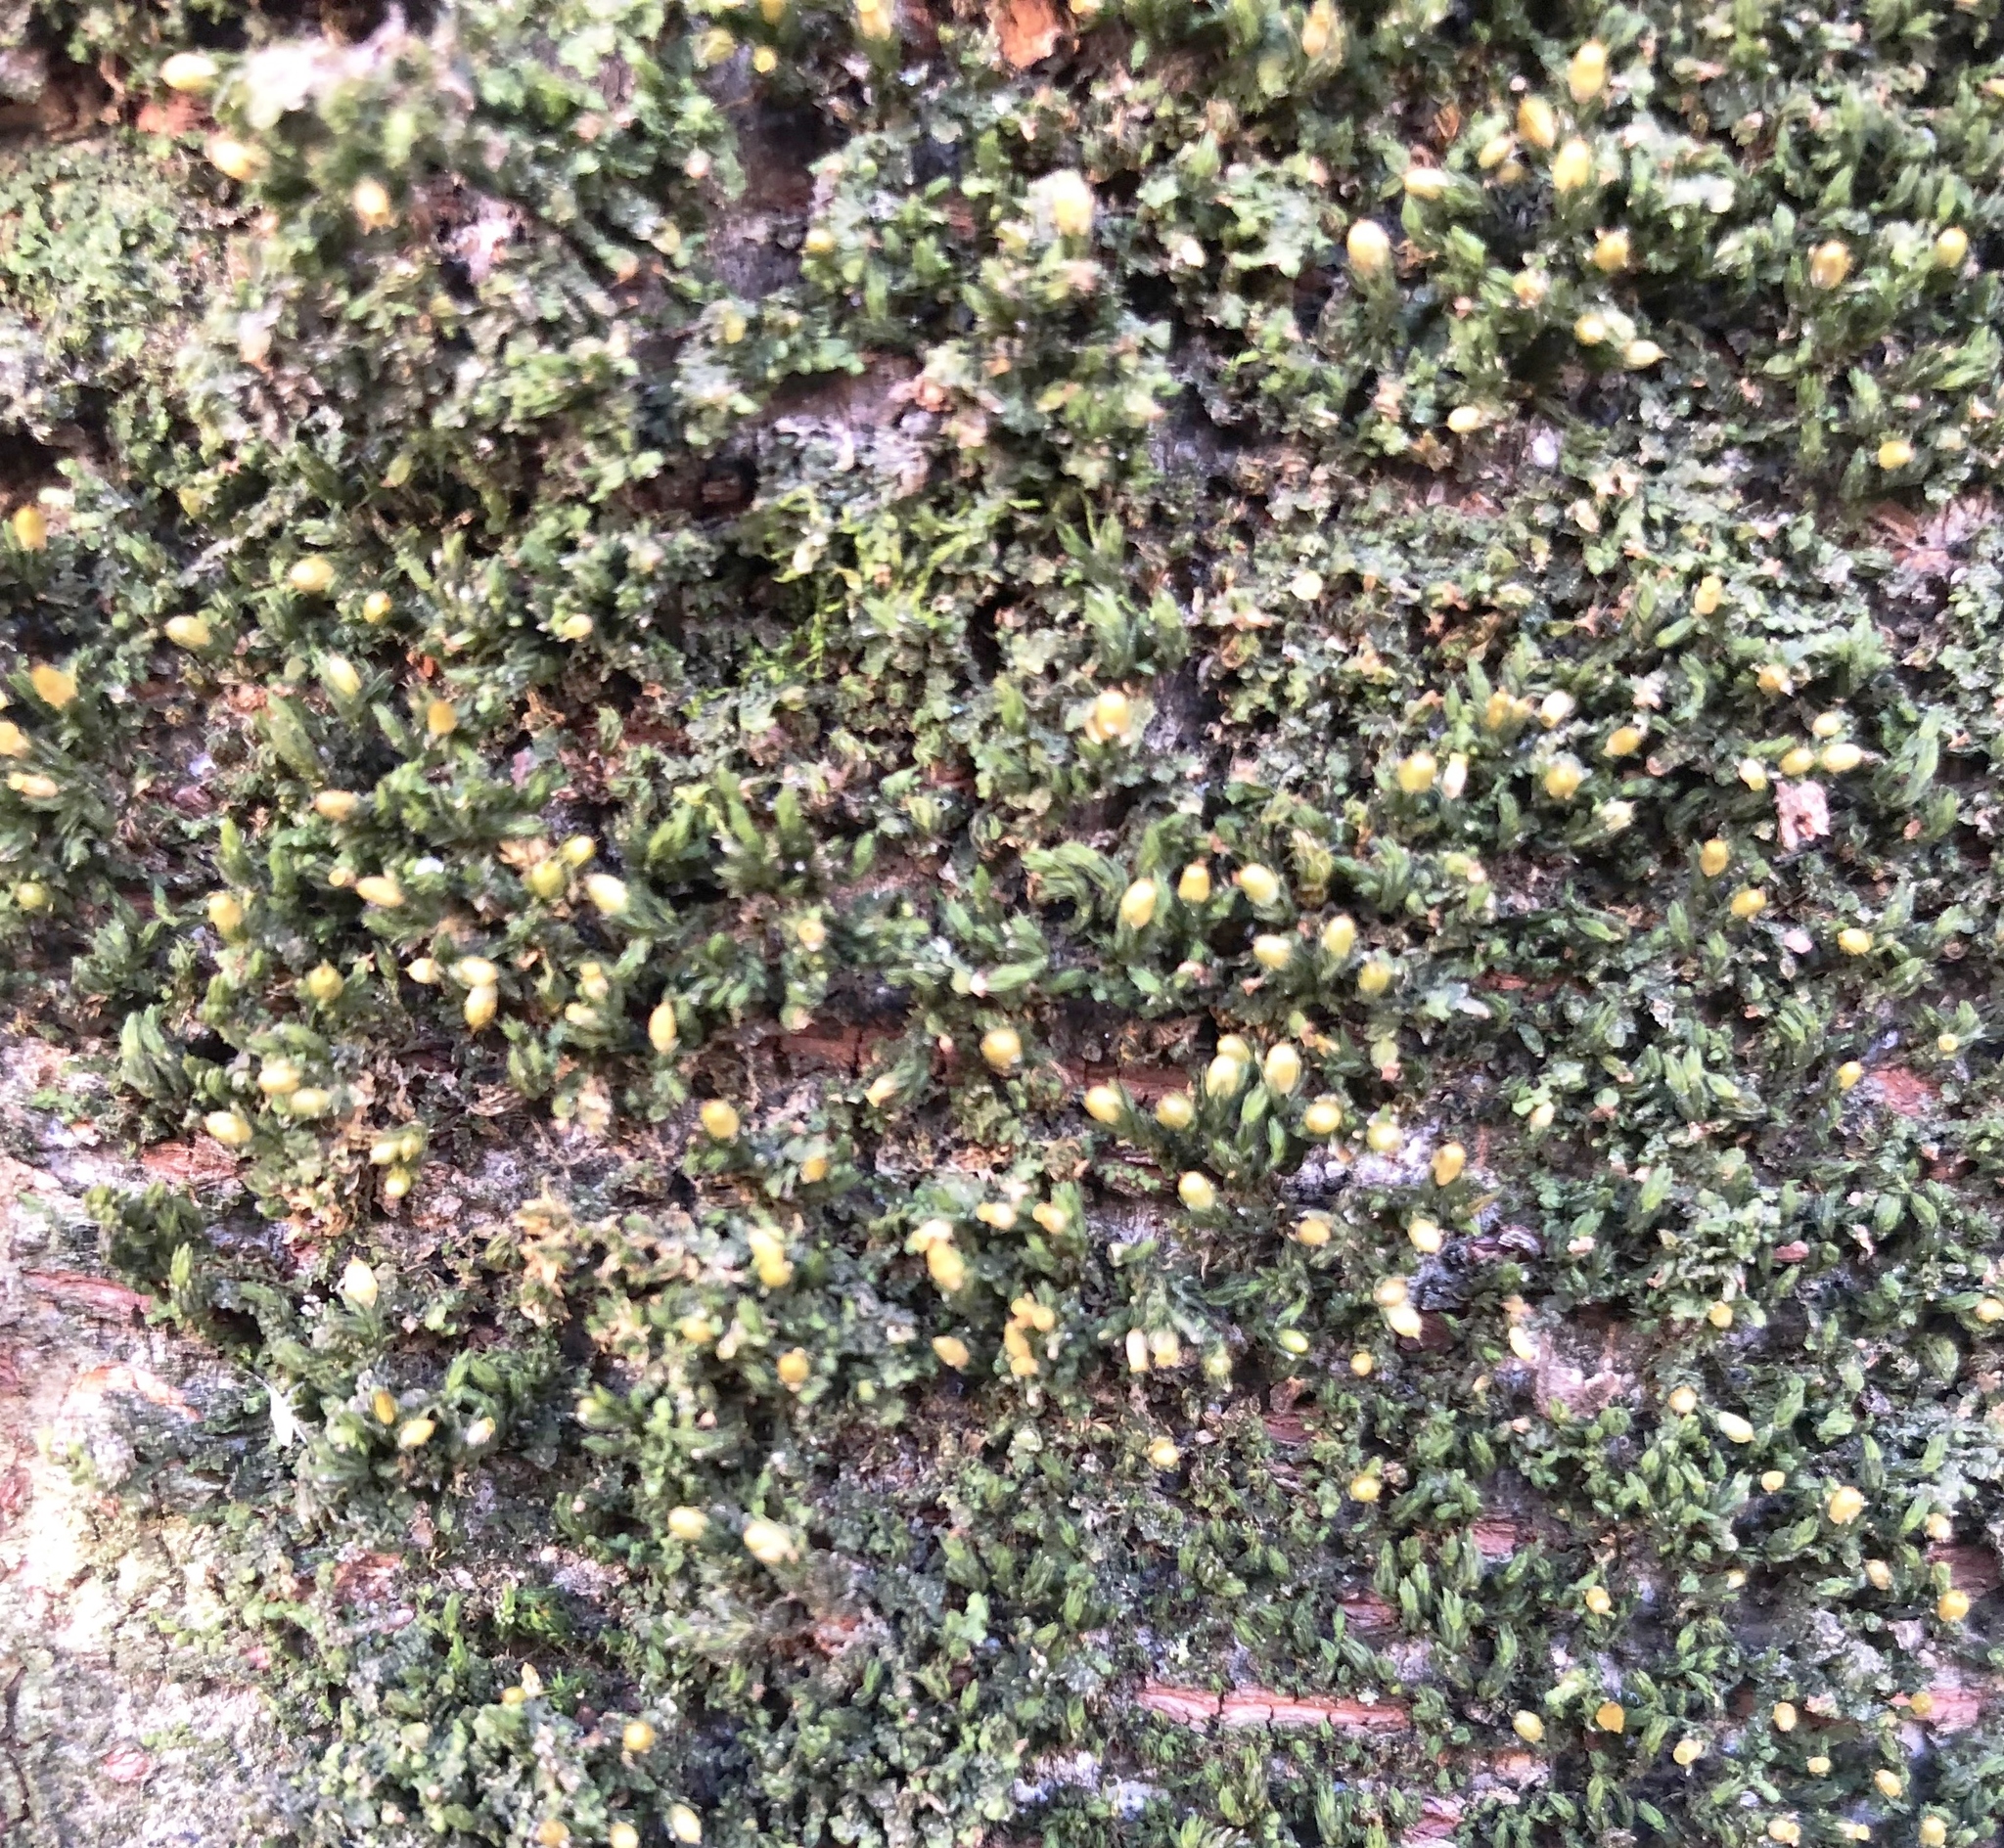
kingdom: Plantae
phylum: Bryophyta
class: Bryopsida
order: Orthotrichales
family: Orthotrichaceae
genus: Orthotrichum
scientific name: Orthotrichum stellatum
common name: Starlike bristle moss
